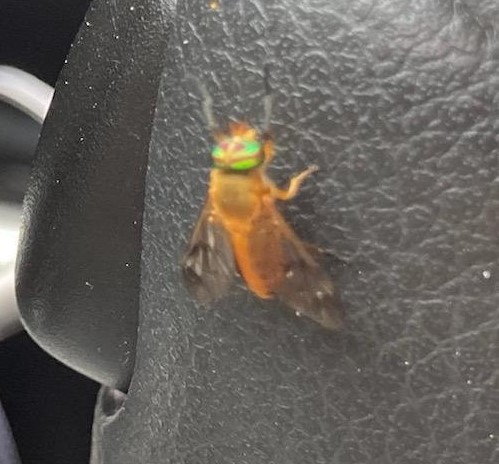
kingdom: Animalia
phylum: Arthropoda
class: Insecta
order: Diptera
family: Tabanidae
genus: Diachlorus
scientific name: Diachlorus ferrugatus
